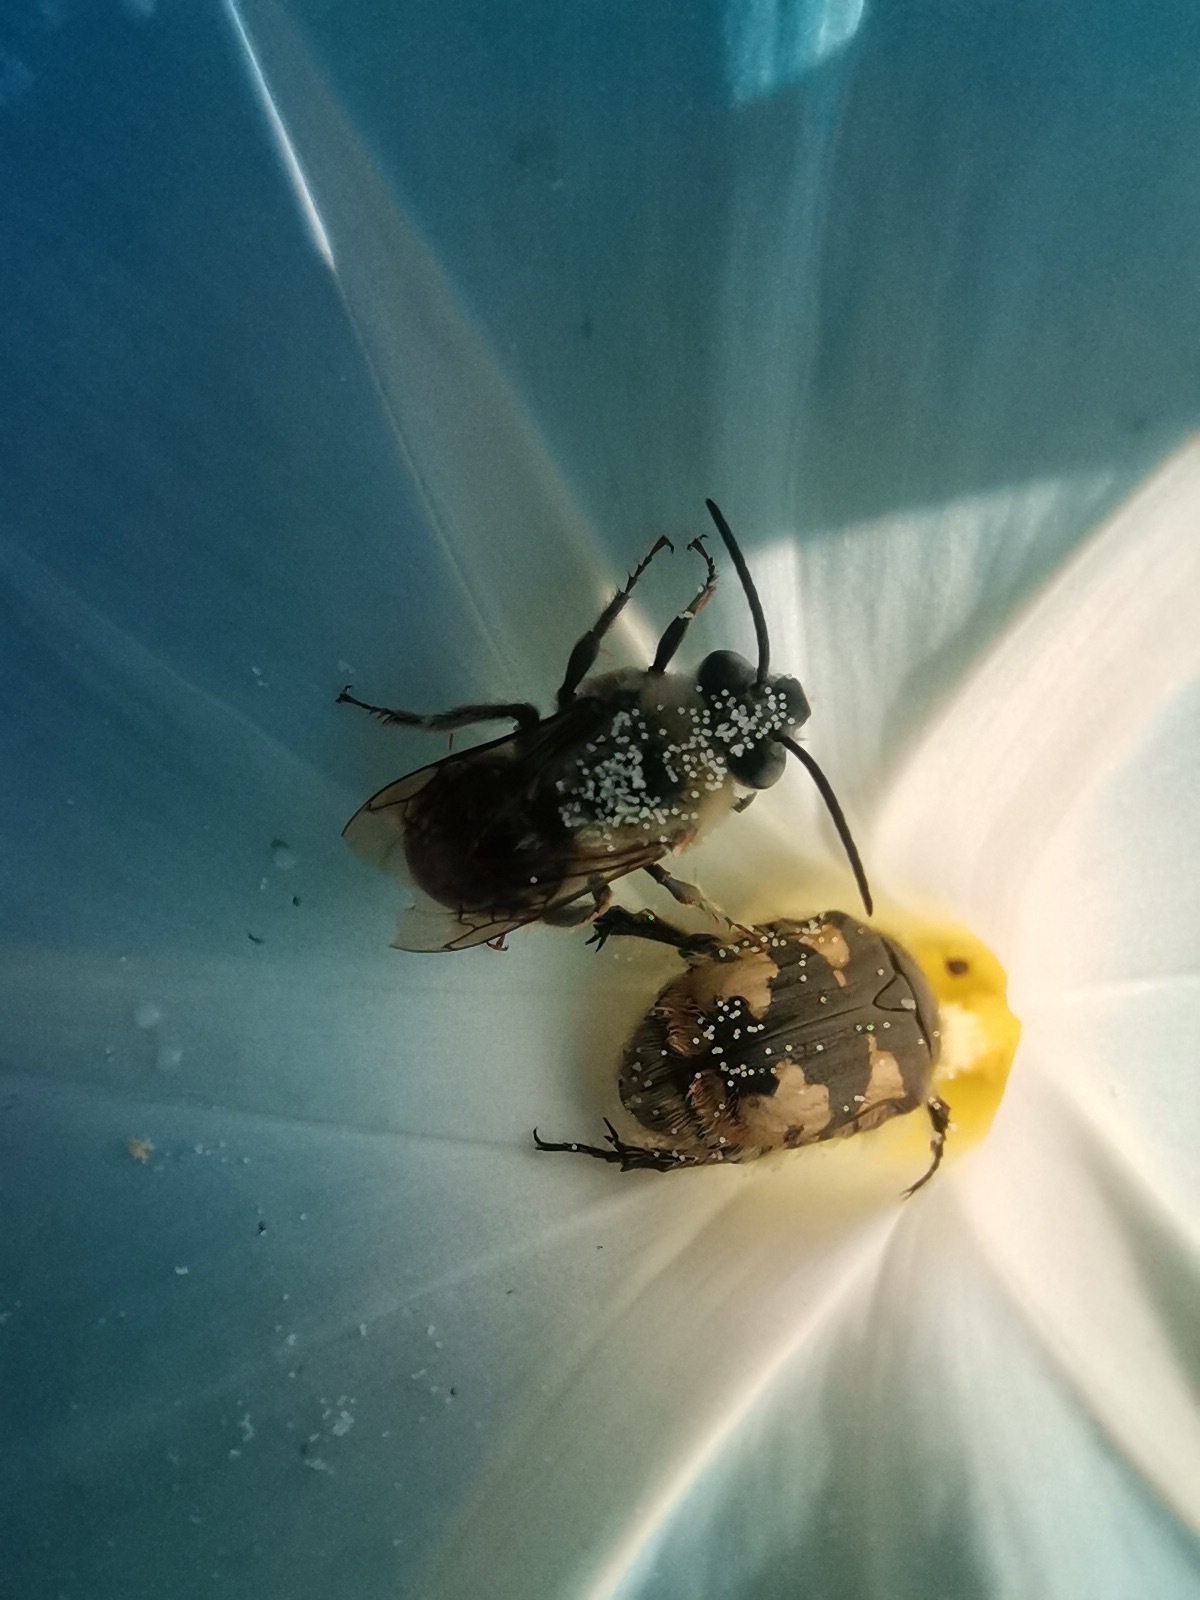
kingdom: Animalia
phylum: Arthropoda
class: Insecta
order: Coleoptera
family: Scarabaeidae
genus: Euphoria
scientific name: Euphoria basalis
